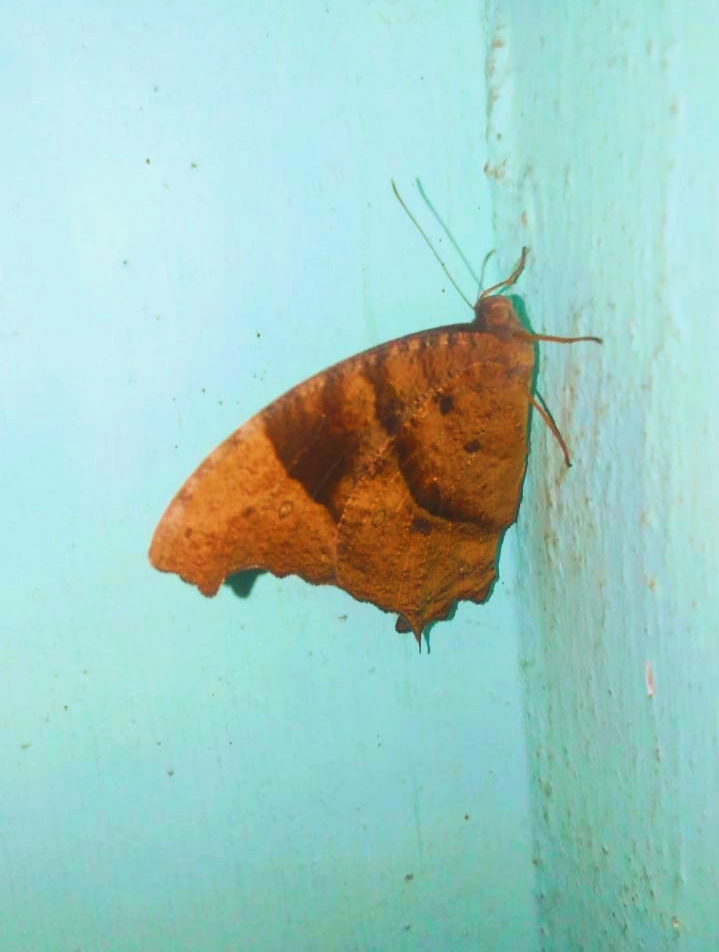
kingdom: Animalia
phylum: Arthropoda
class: Insecta
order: Lepidoptera
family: Nymphalidae
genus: Melanitis
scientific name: Melanitis leda
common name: Twilight brown
